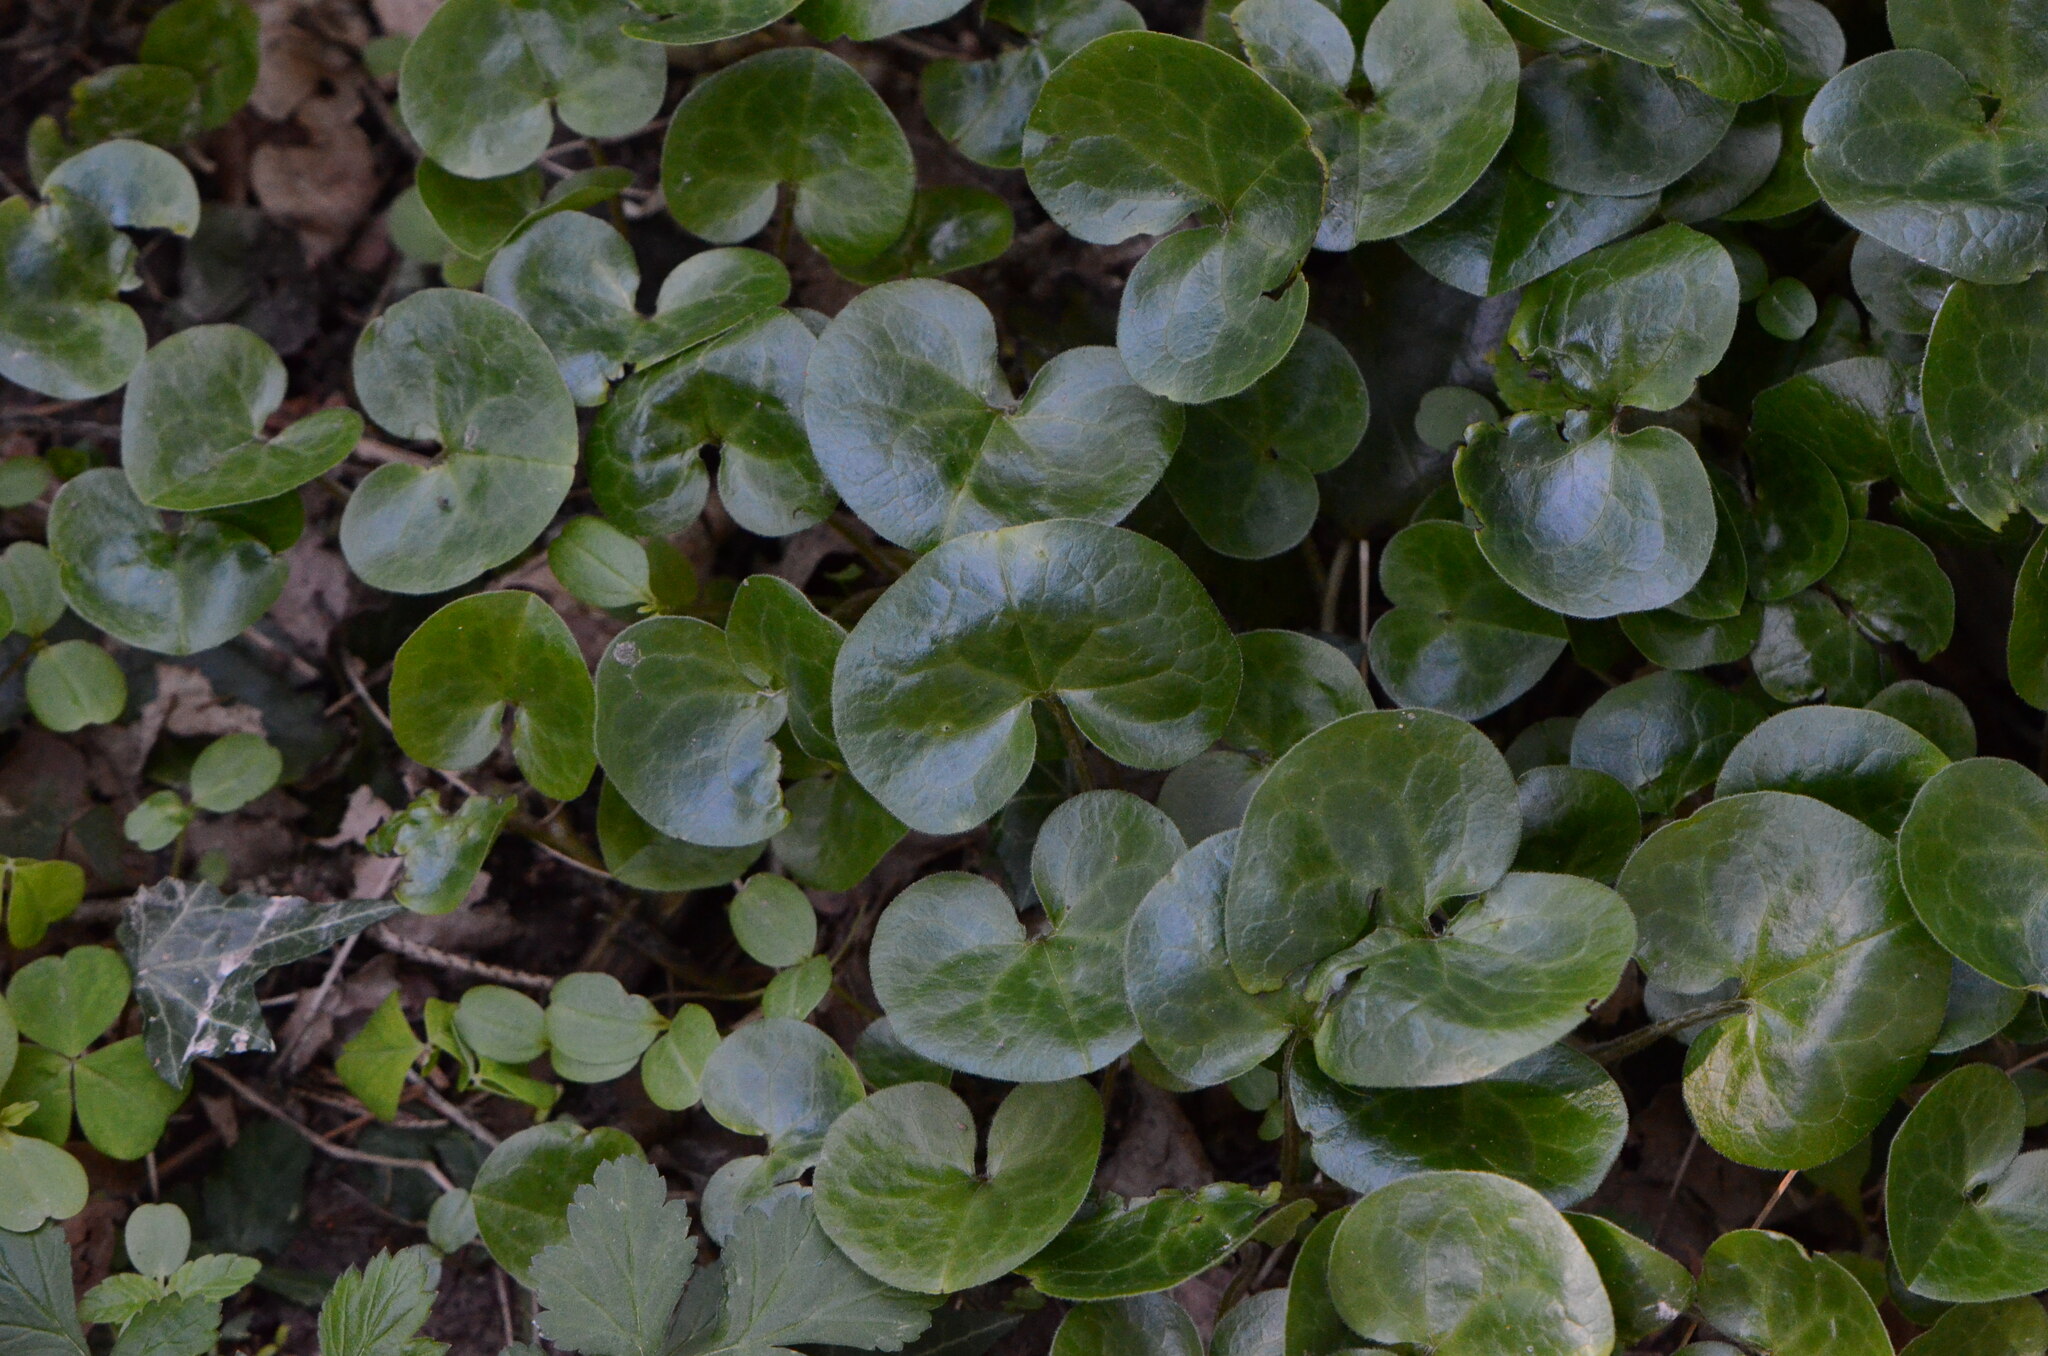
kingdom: Plantae
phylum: Tracheophyta
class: Magnoliopsida
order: Piperales
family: Aristolochiaceae
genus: Asarum
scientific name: Asarum europaeum
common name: Asarabacca
